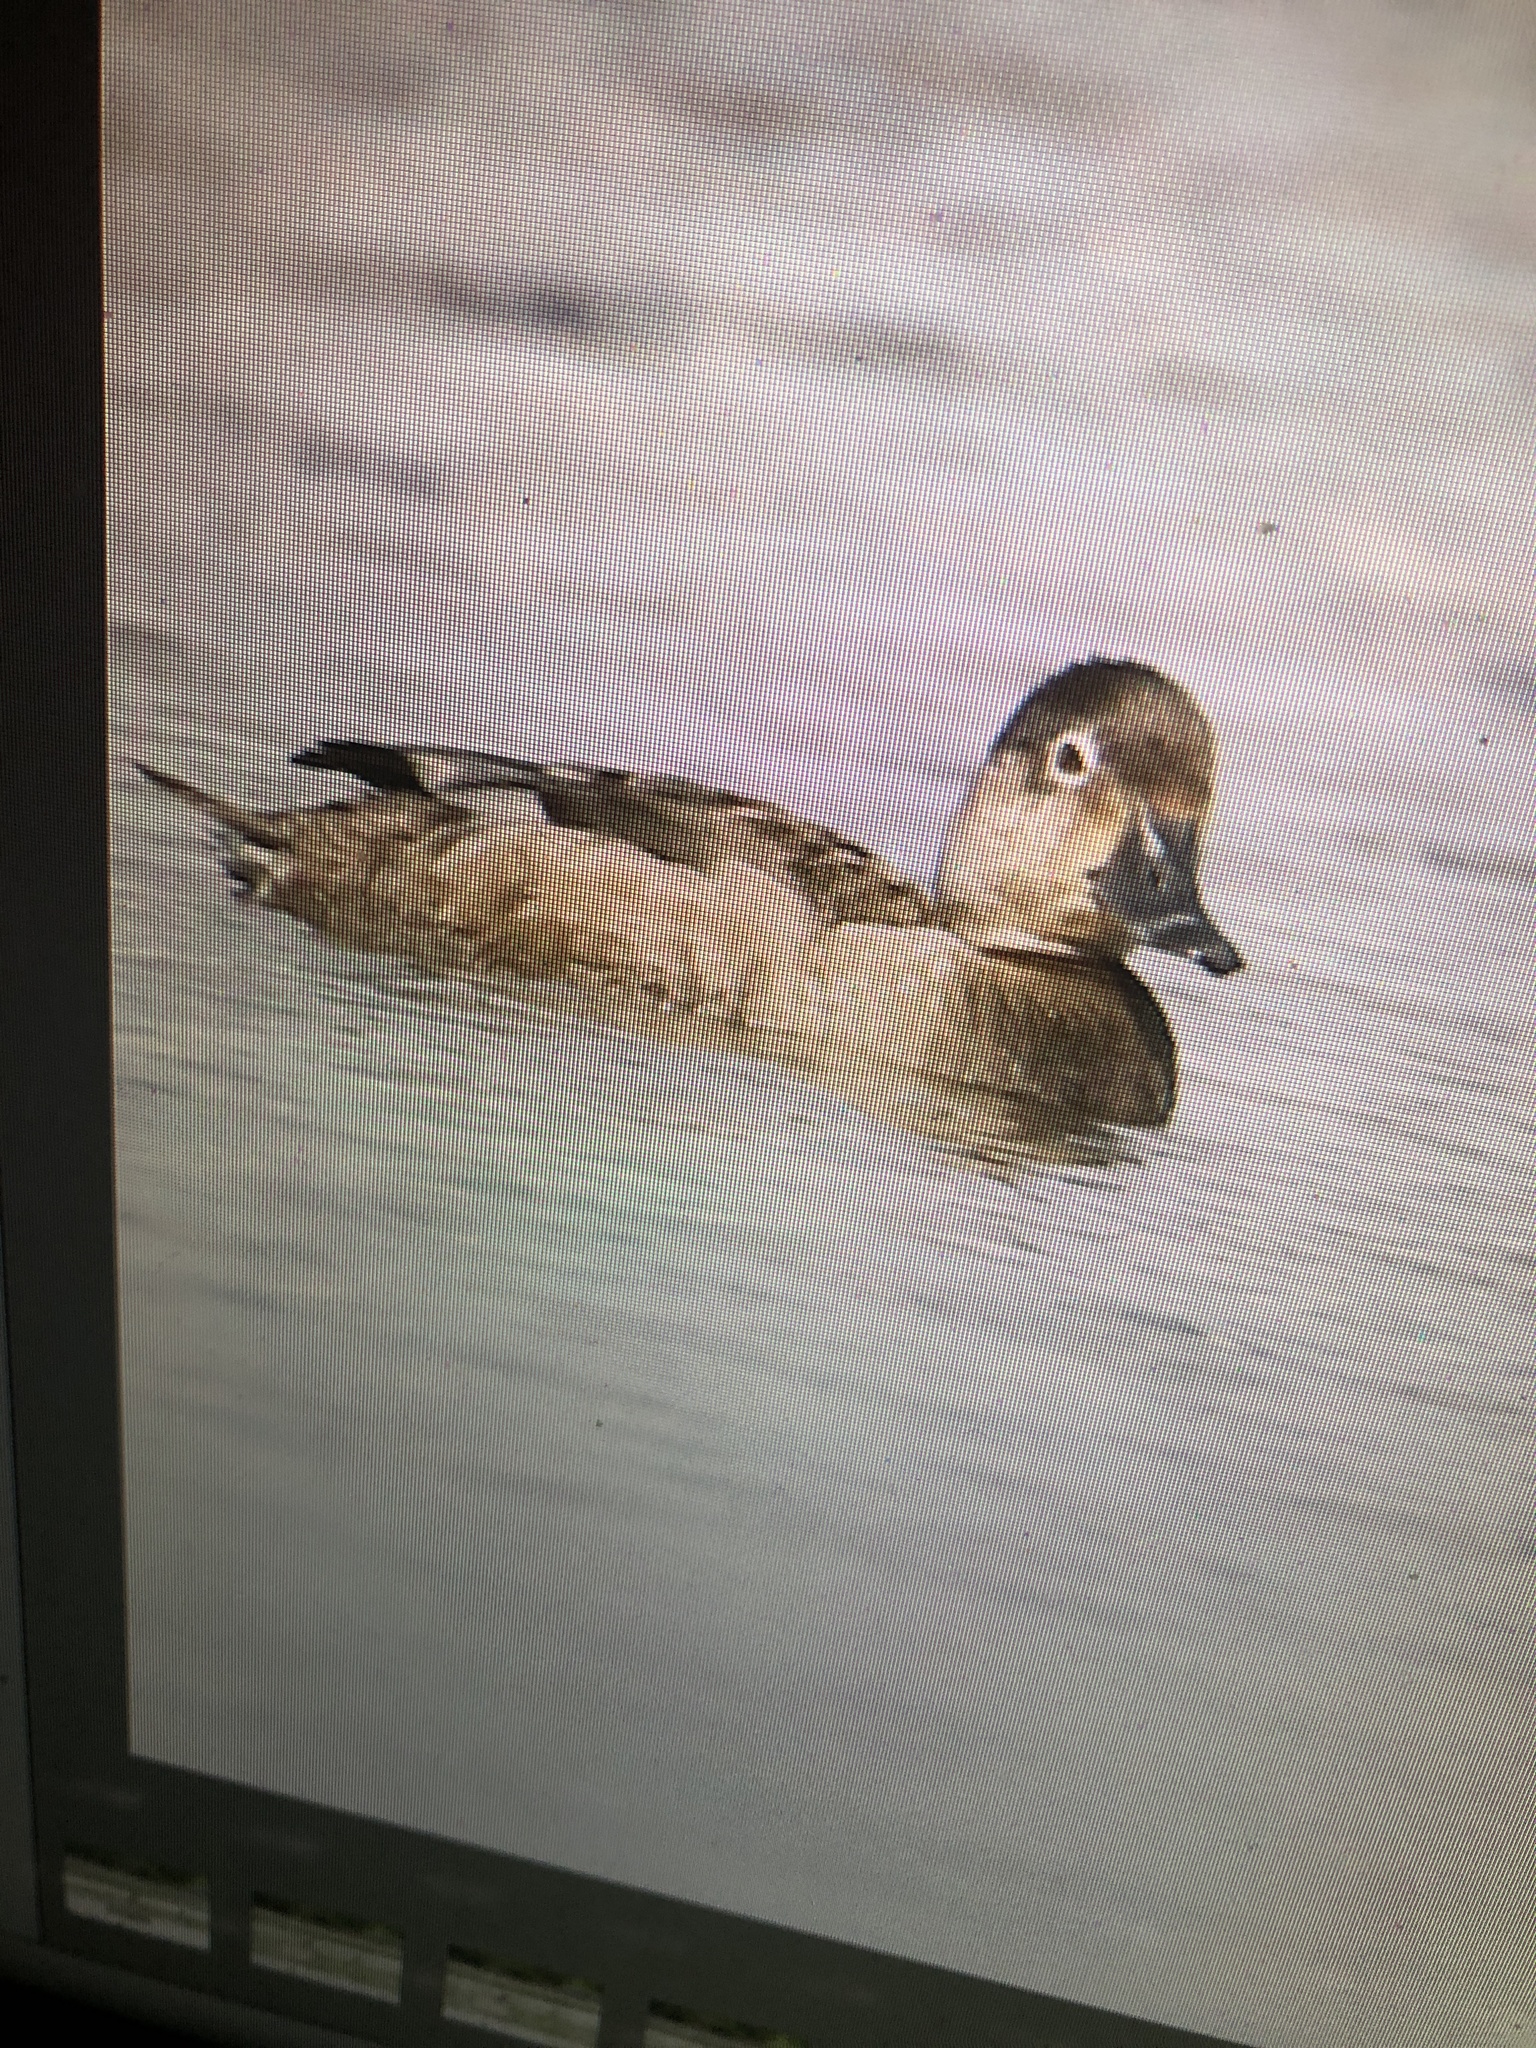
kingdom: Animalia
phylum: Chordata
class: Aves
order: Anseriformes
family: Anatidae
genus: Aythya
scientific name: Aythya collaris
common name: Ring-necked duck
